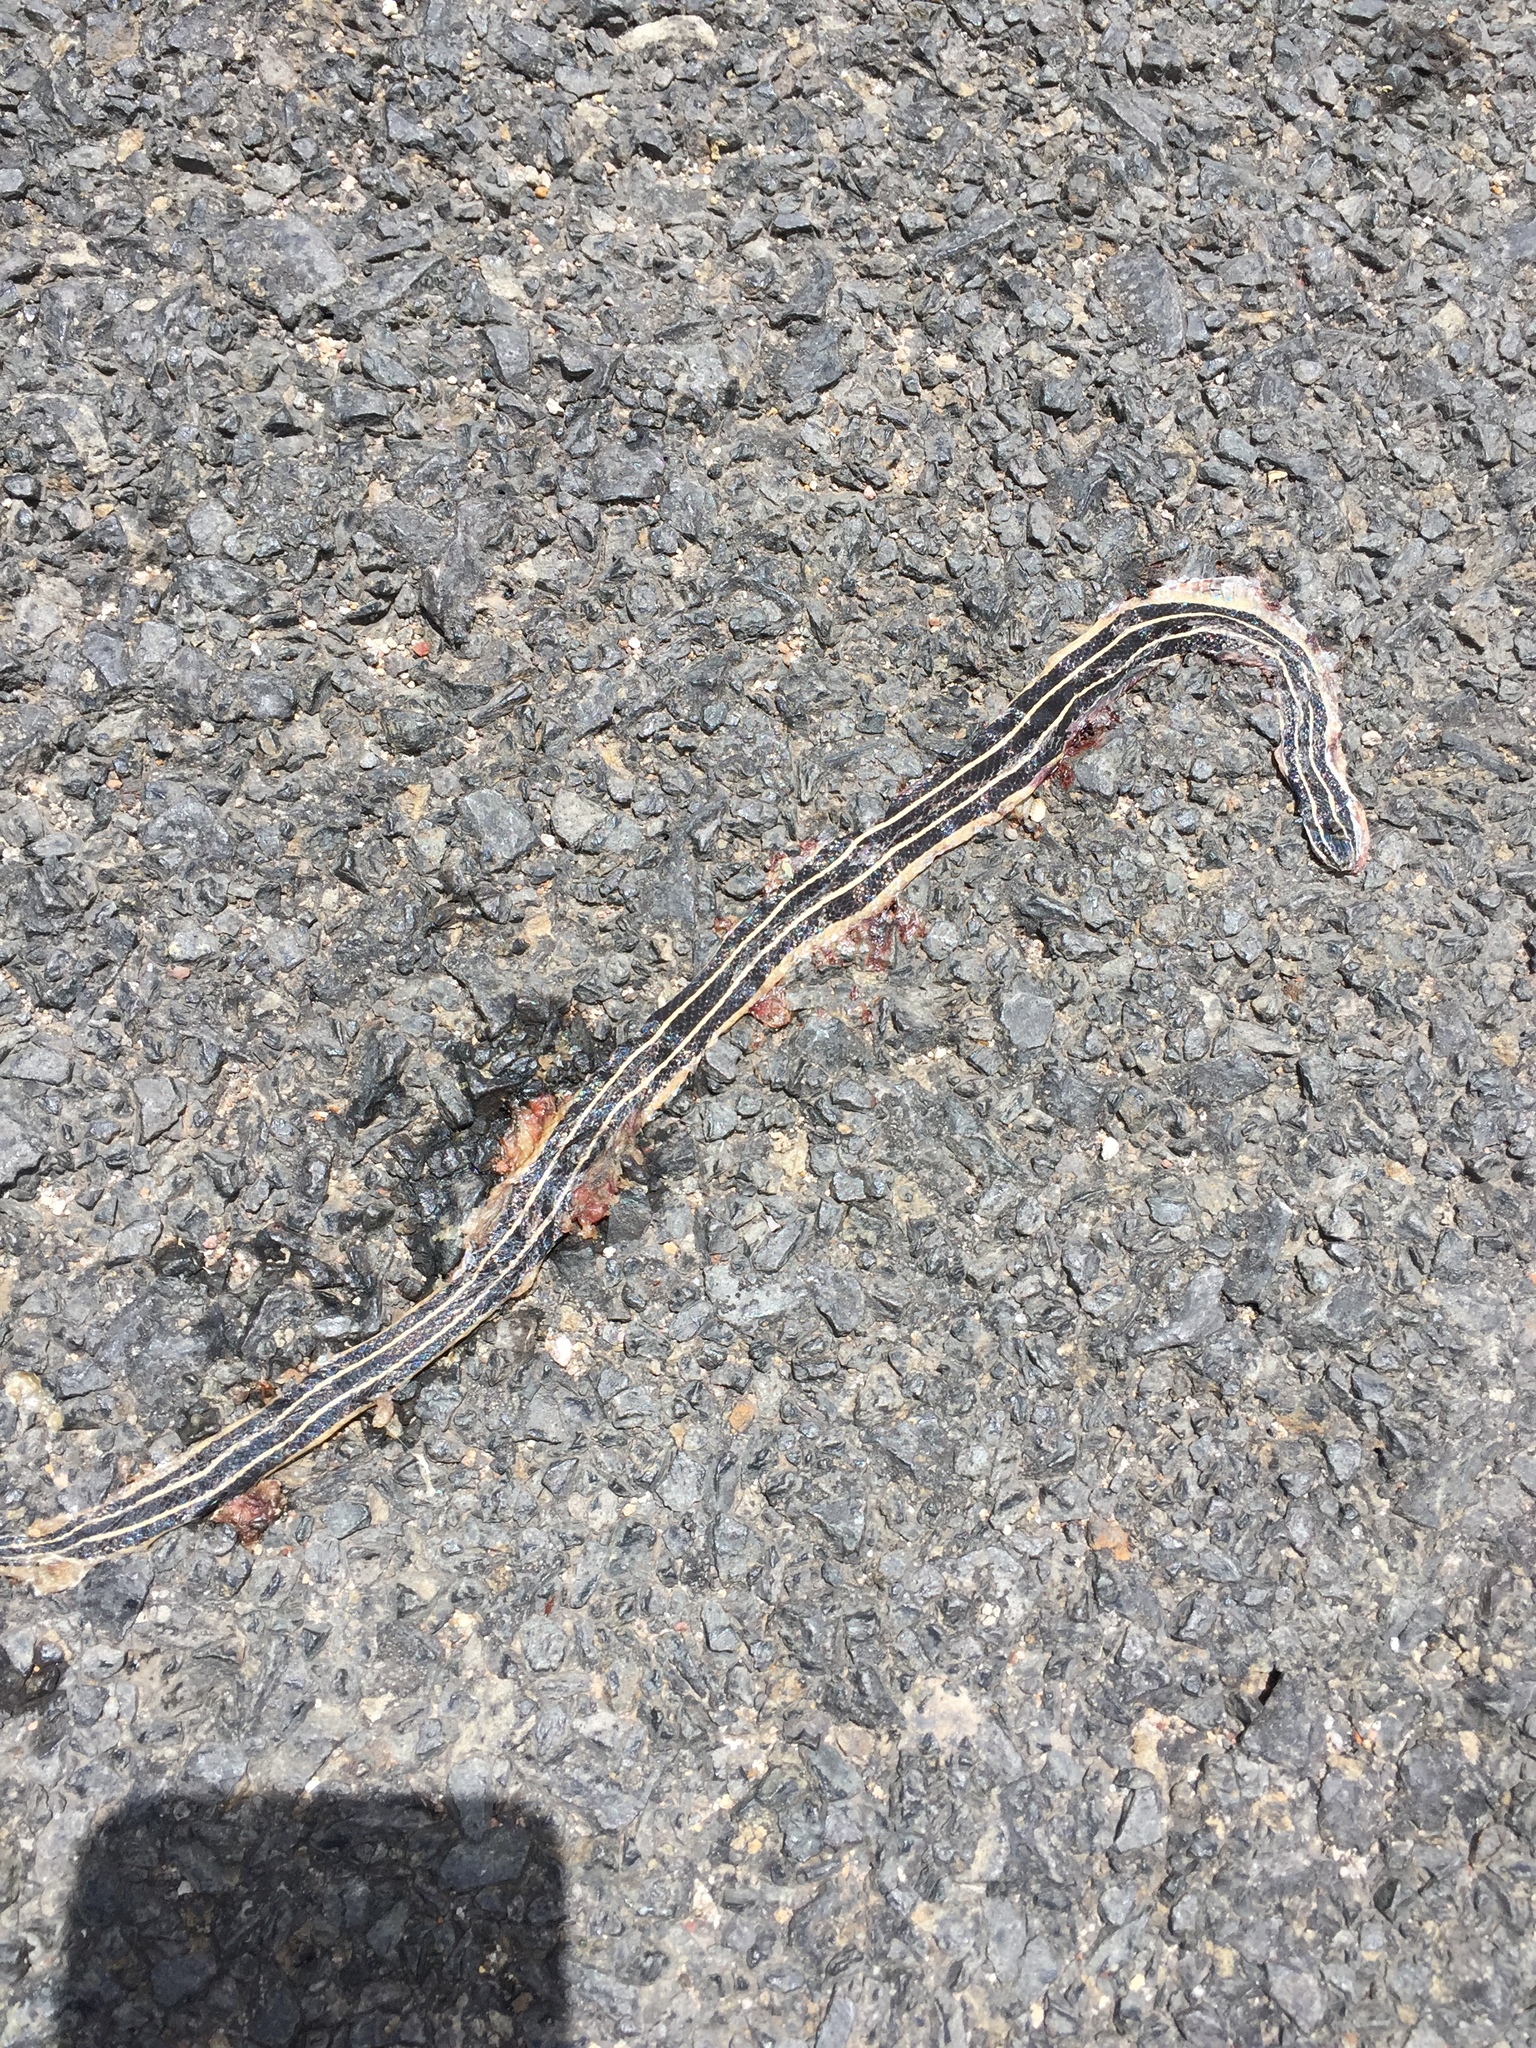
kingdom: Animalia
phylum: Chordata
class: Squamata
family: Colubridae
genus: Conophis
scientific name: Conophis lineatus
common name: Road guarder
